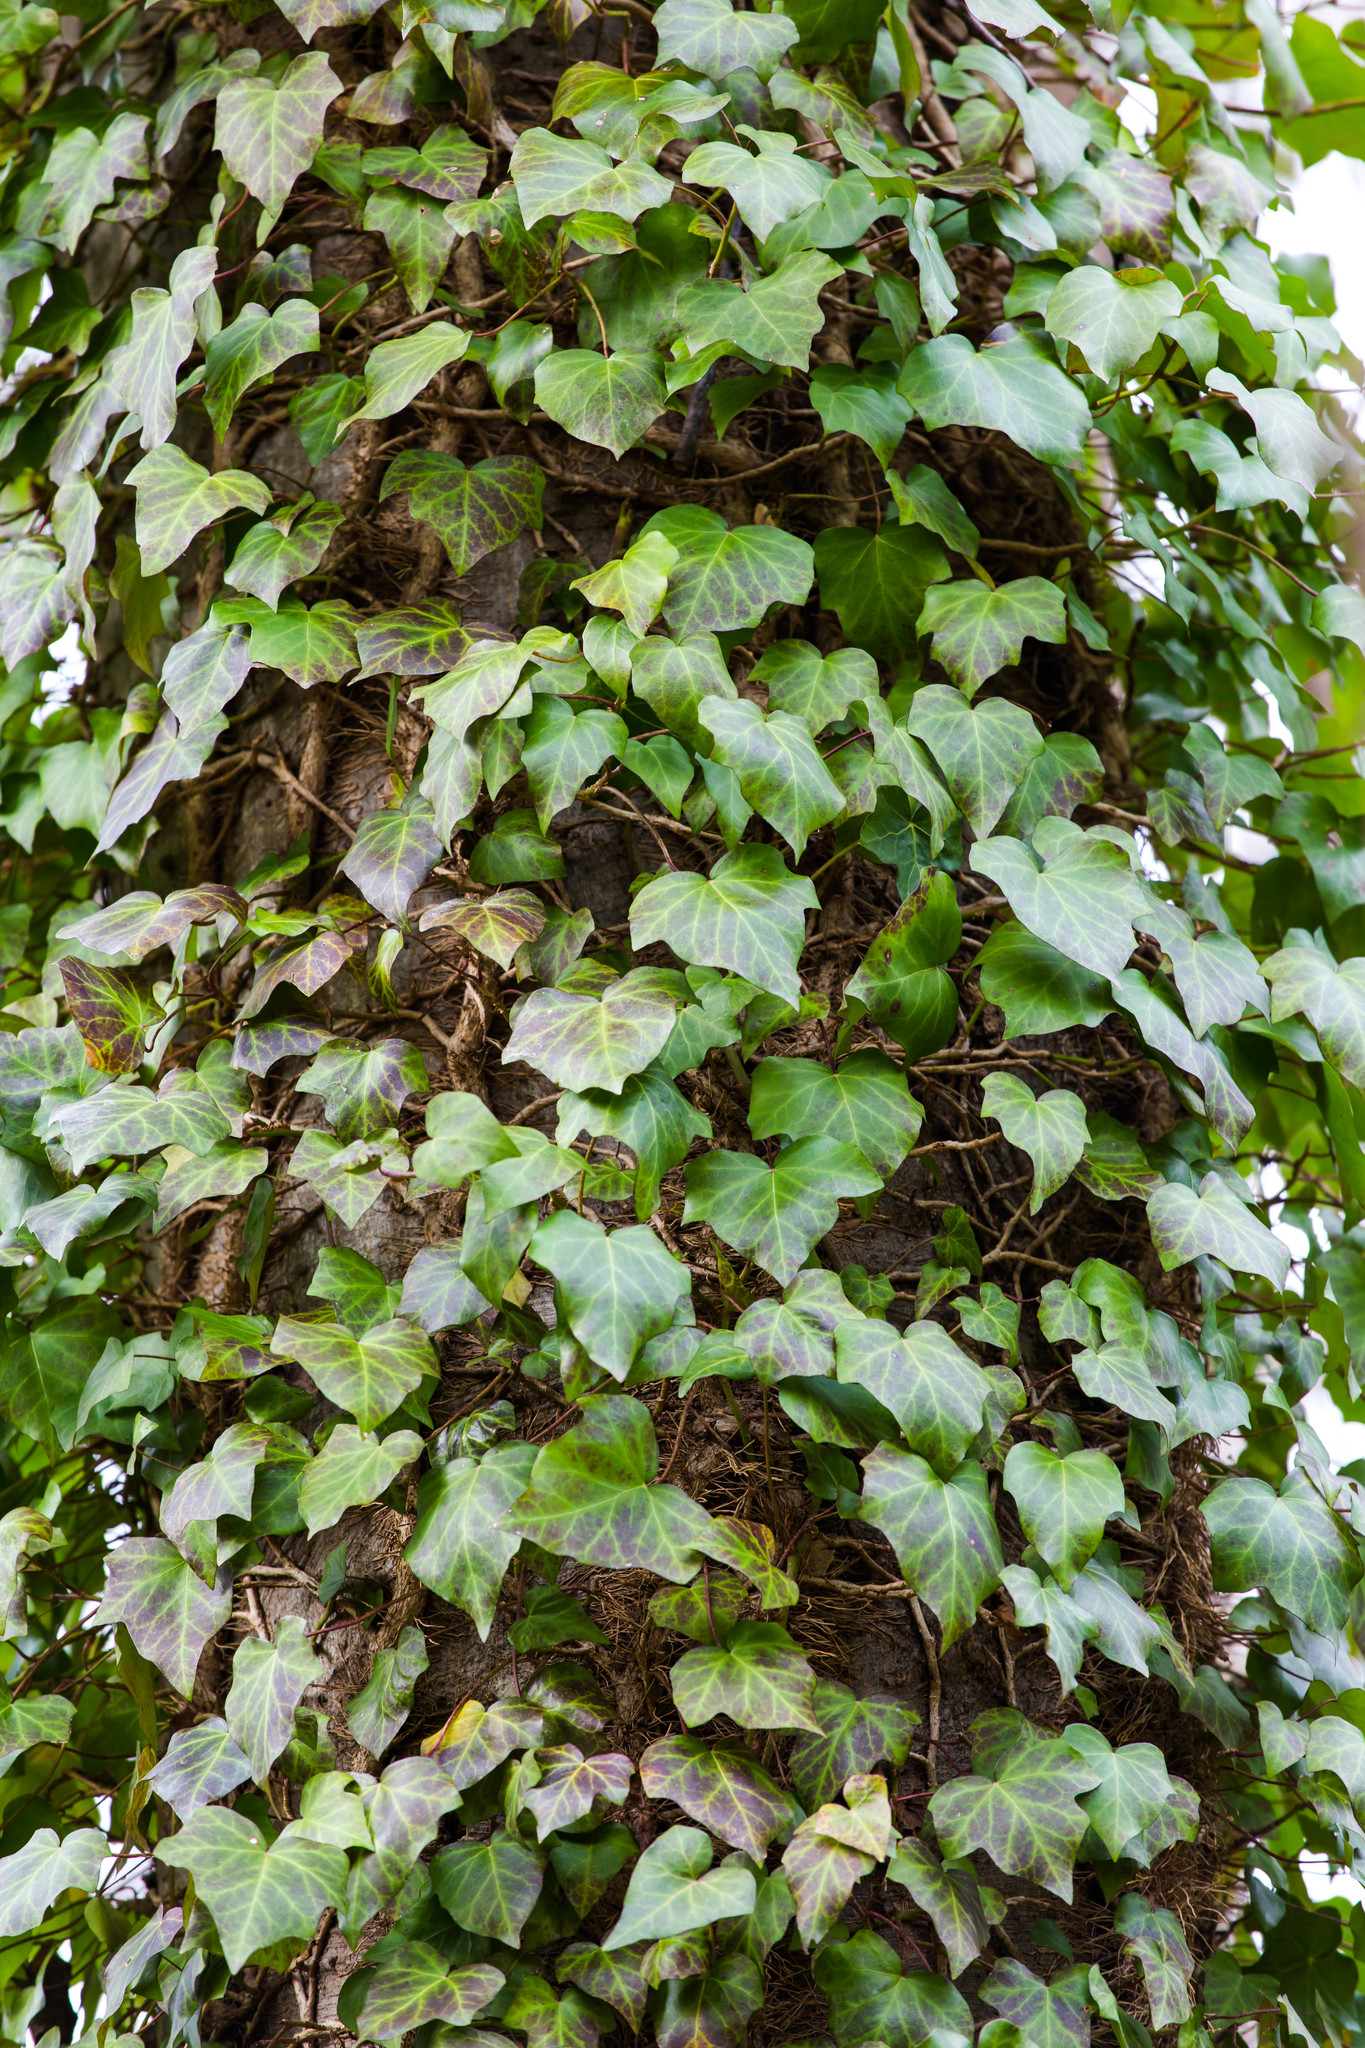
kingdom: Plantae
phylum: Tracheophyta
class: Magnoliopsida
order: Apiales
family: Araliaceae
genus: Hedera
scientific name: Hedera helix
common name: Ivy
